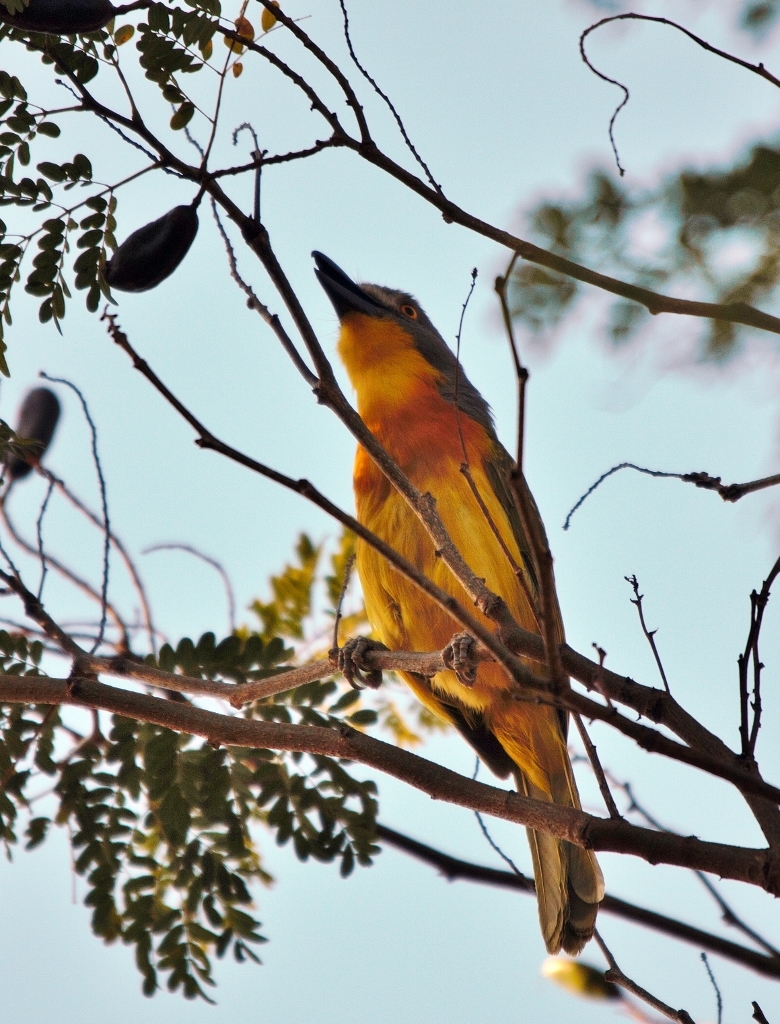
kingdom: Animalia
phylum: Chordata
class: Aves
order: Passeriformes
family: Malaconotidae
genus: Malaconotus
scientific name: Malaconotus blanchoti
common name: Grey-headed bushshrike
